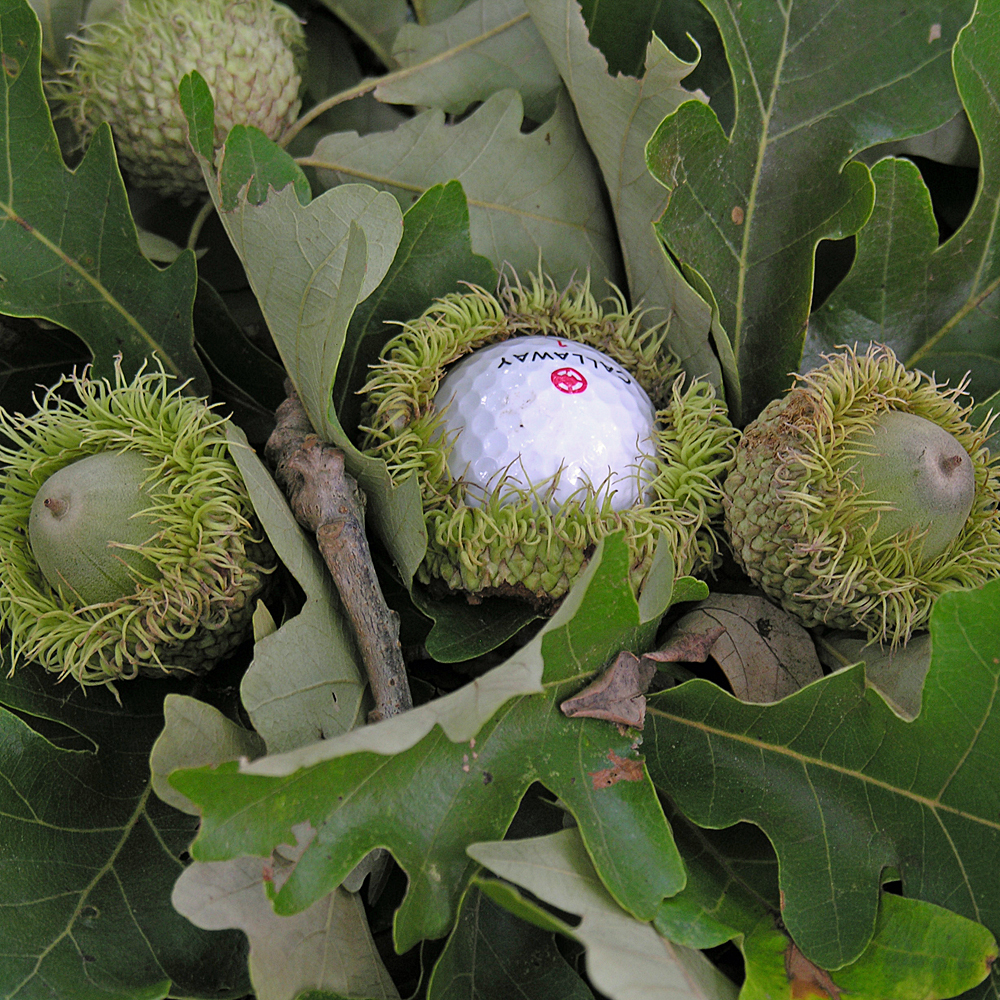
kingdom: Plantae
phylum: Tracheophyta
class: Magnoliopsida
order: Fagales
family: Fagaceae
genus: Quercus
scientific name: Quercus macrocarpa
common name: Bur oak
